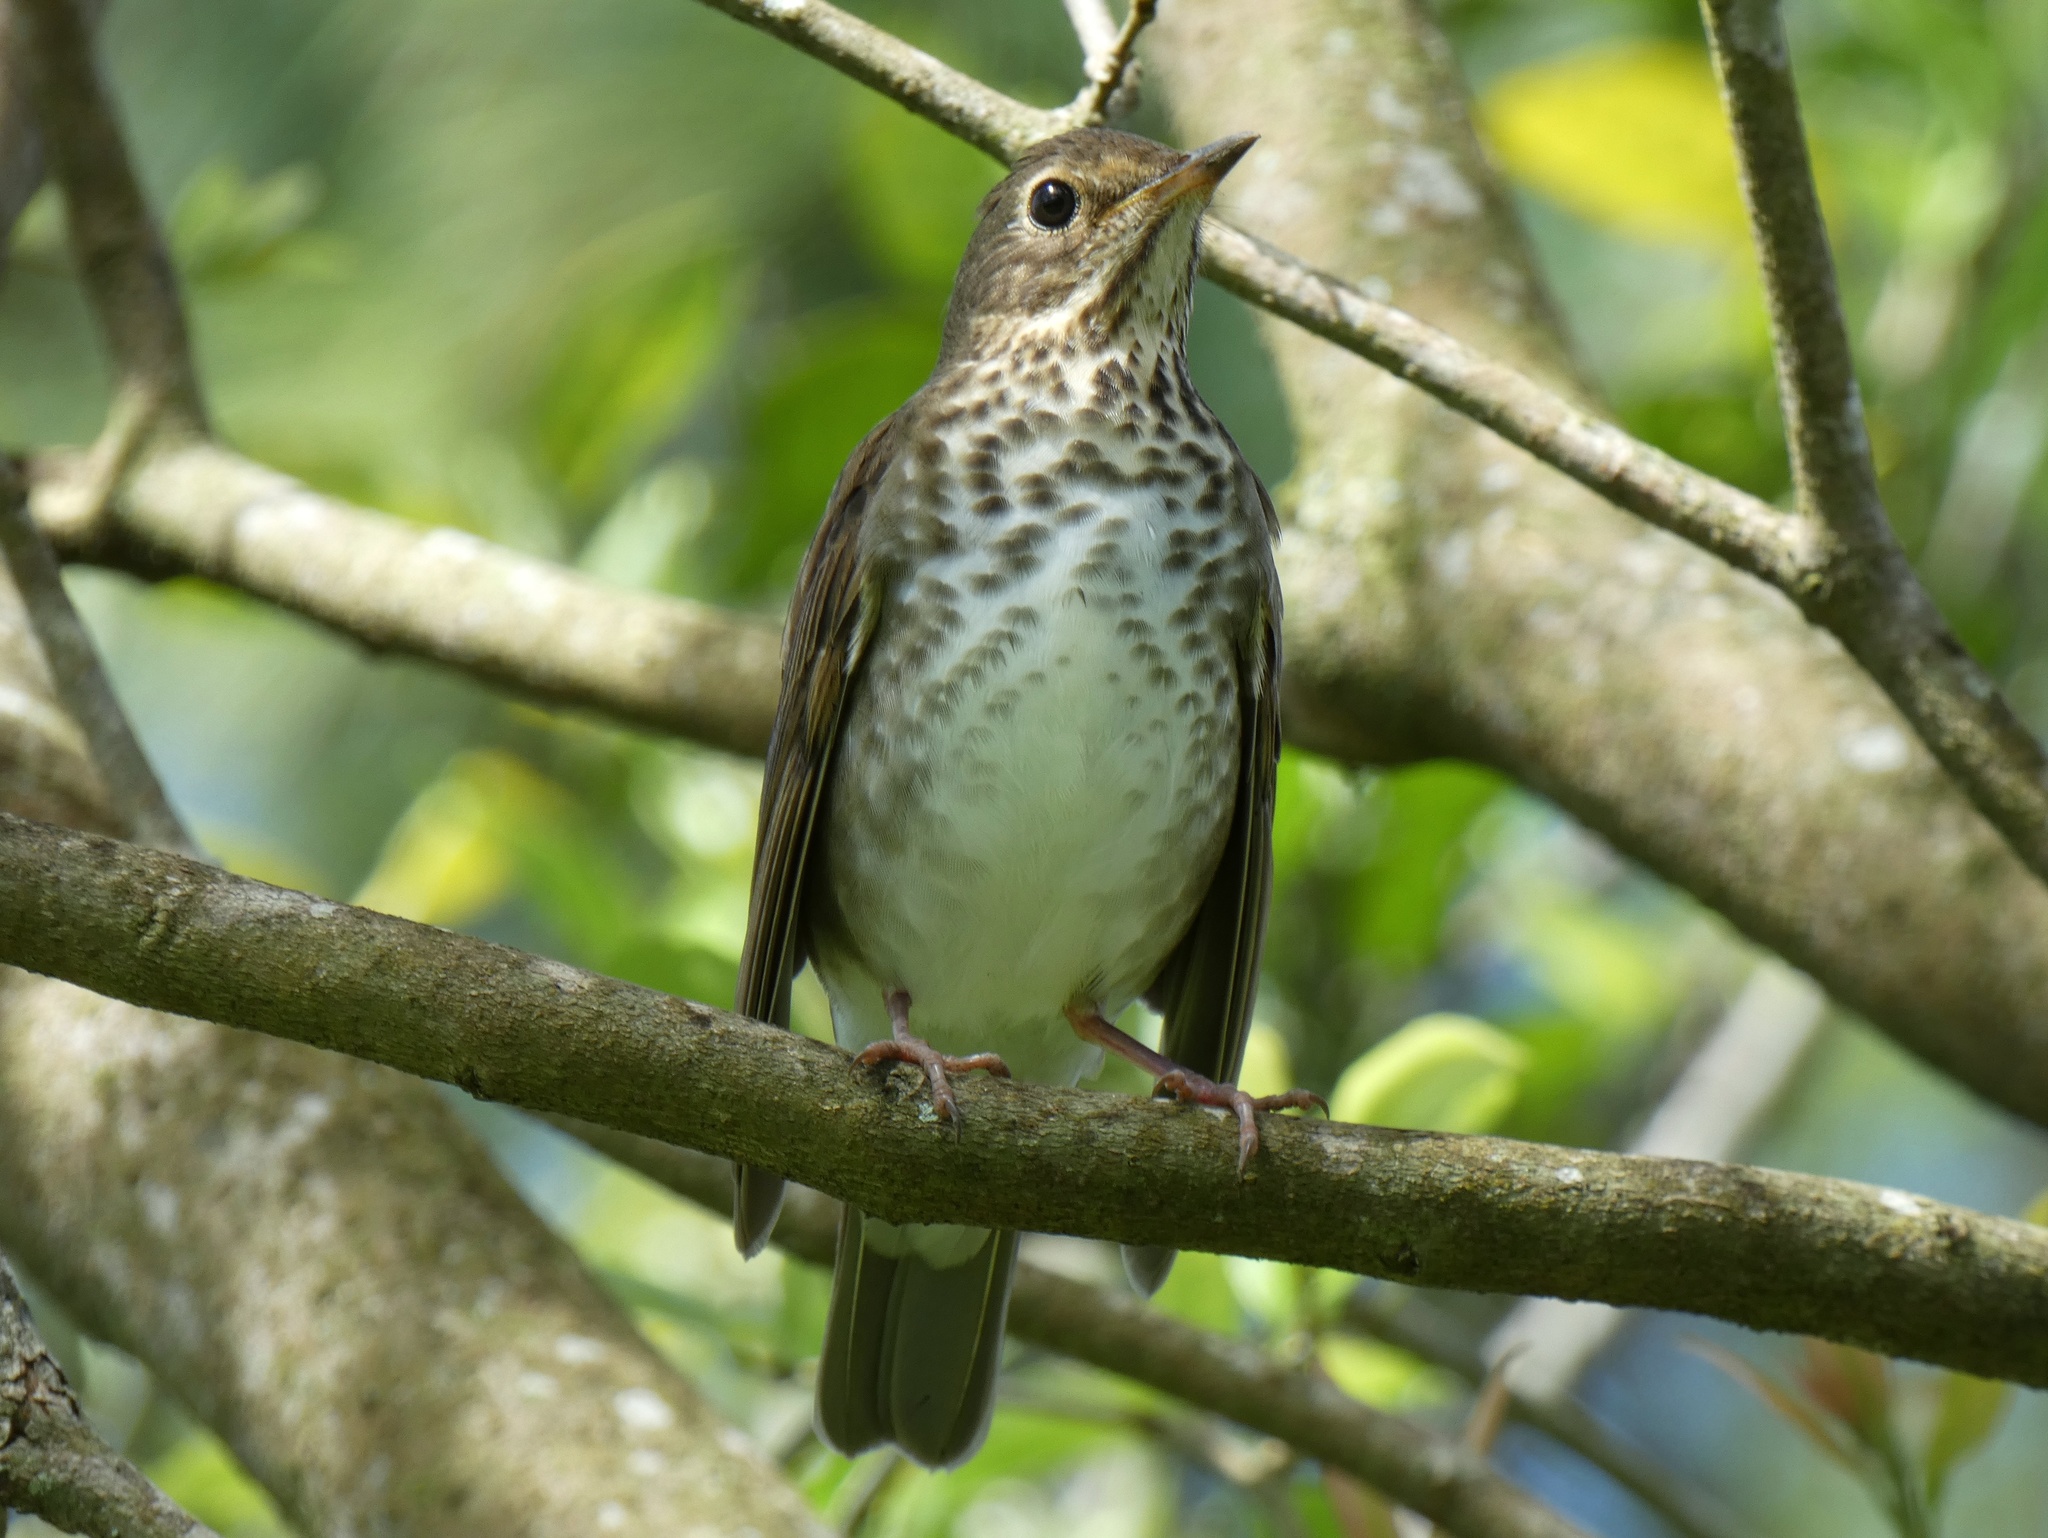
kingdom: Animalia
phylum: Chordata
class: Aves
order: Passeriformes
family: Turdidae
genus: Catharus
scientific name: Catharus ustulatus
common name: Swainson's thrush
